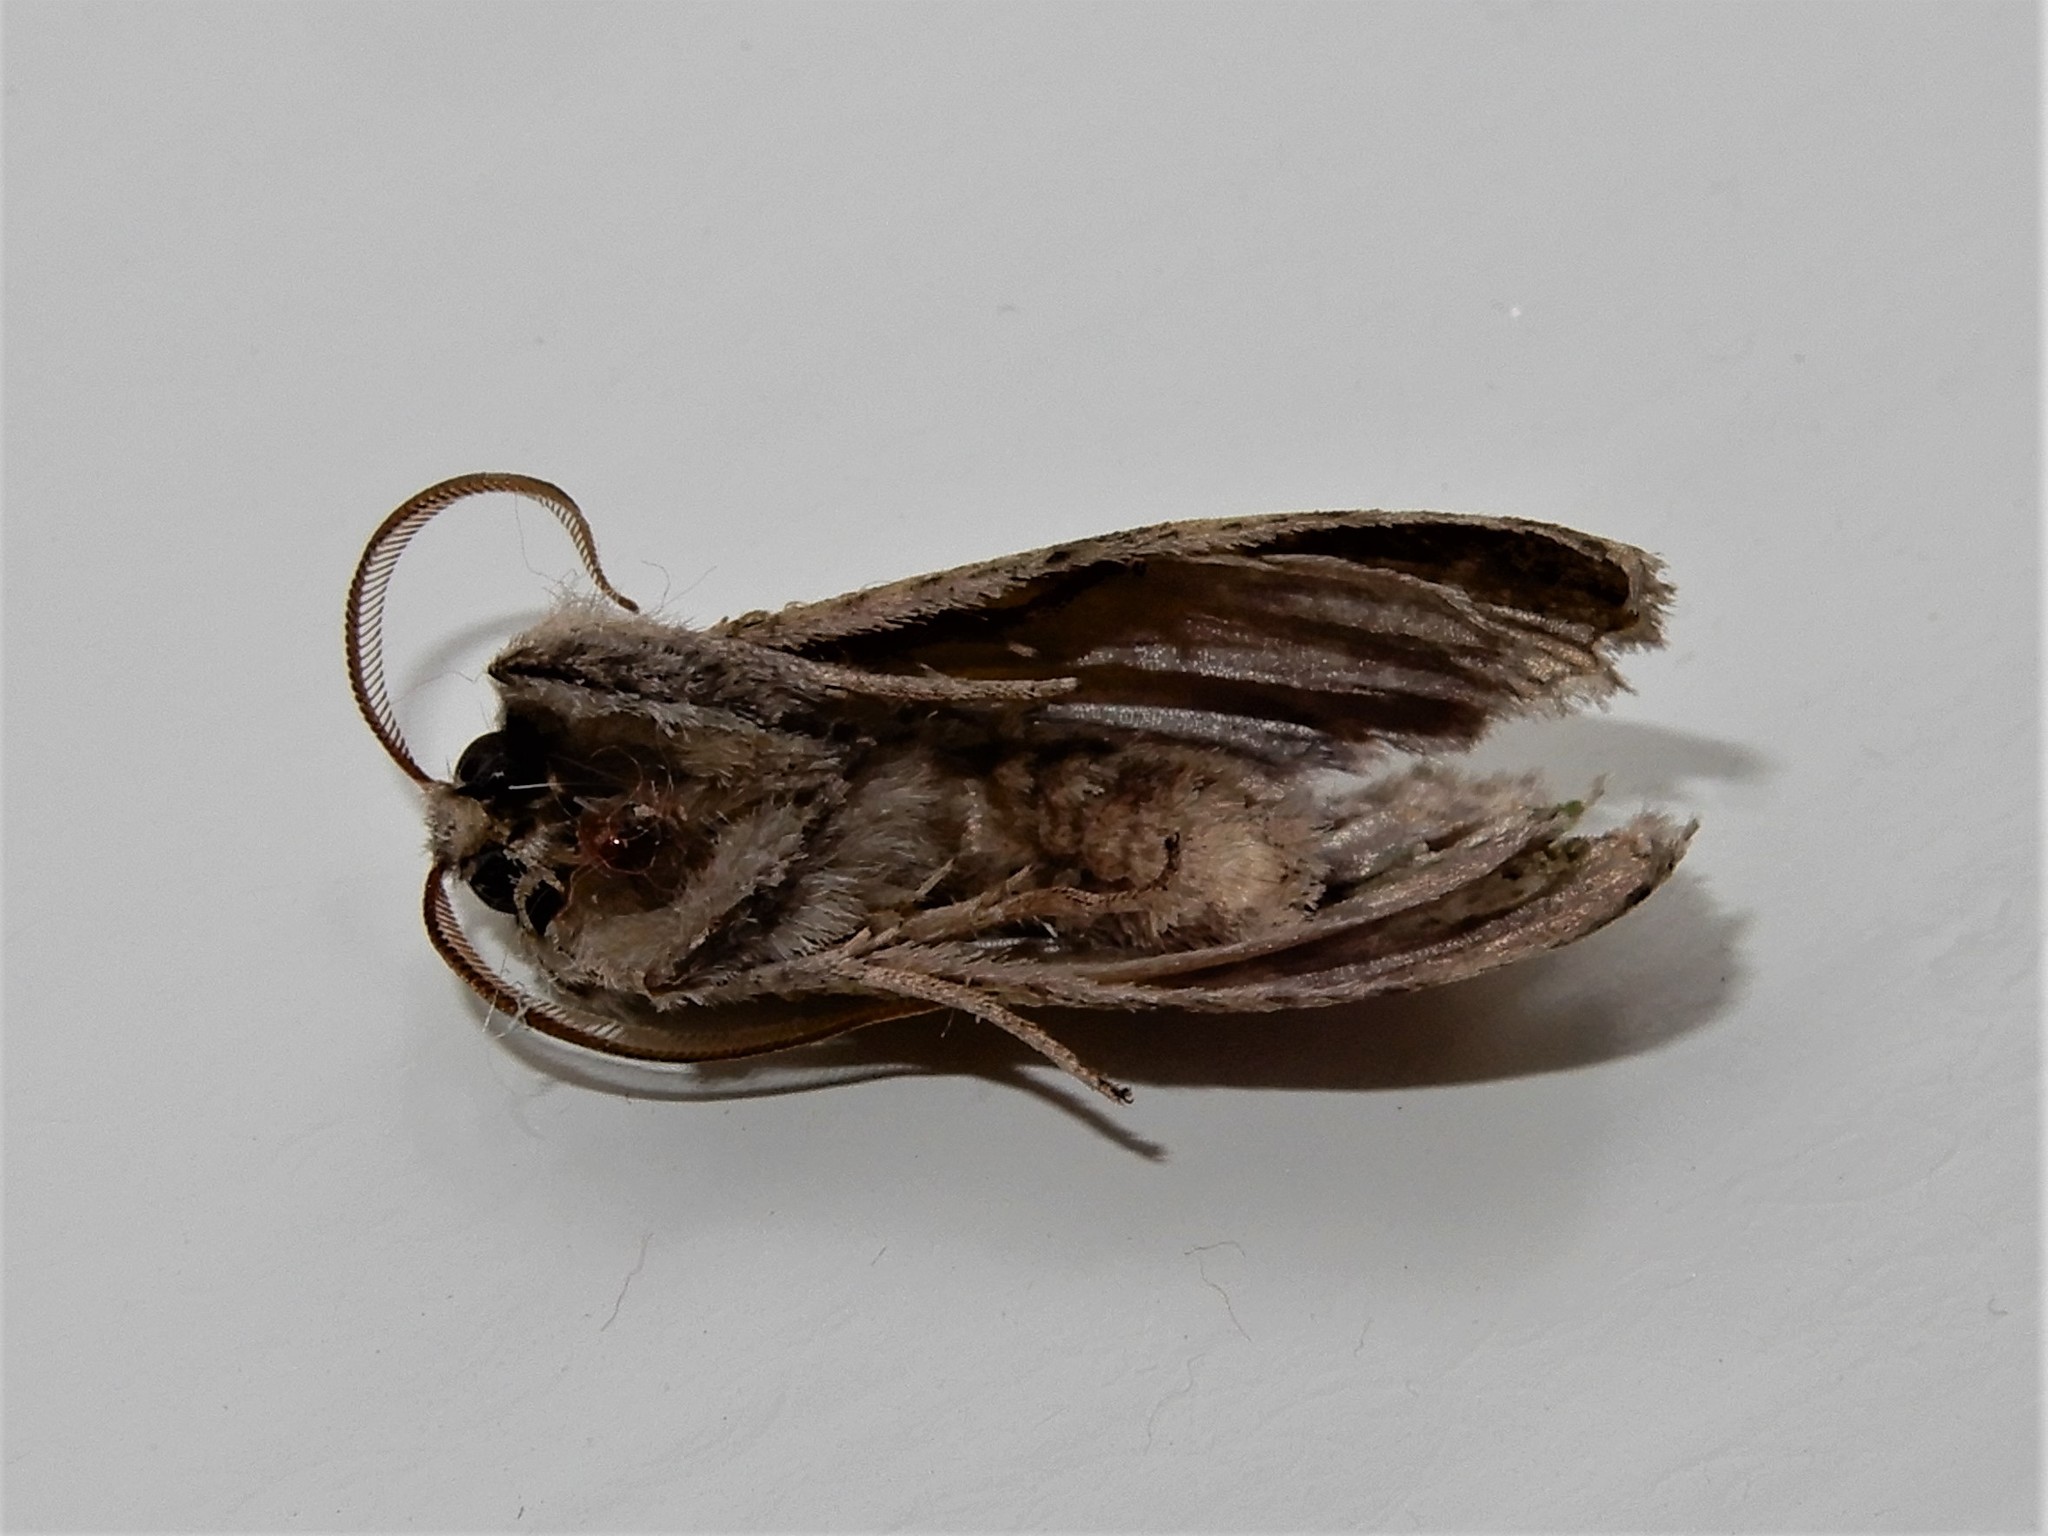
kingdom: Animalia
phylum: Arthropoda
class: Insecta
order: Lepidoptera
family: Geometridae
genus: Declana
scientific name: Declana floccosa
